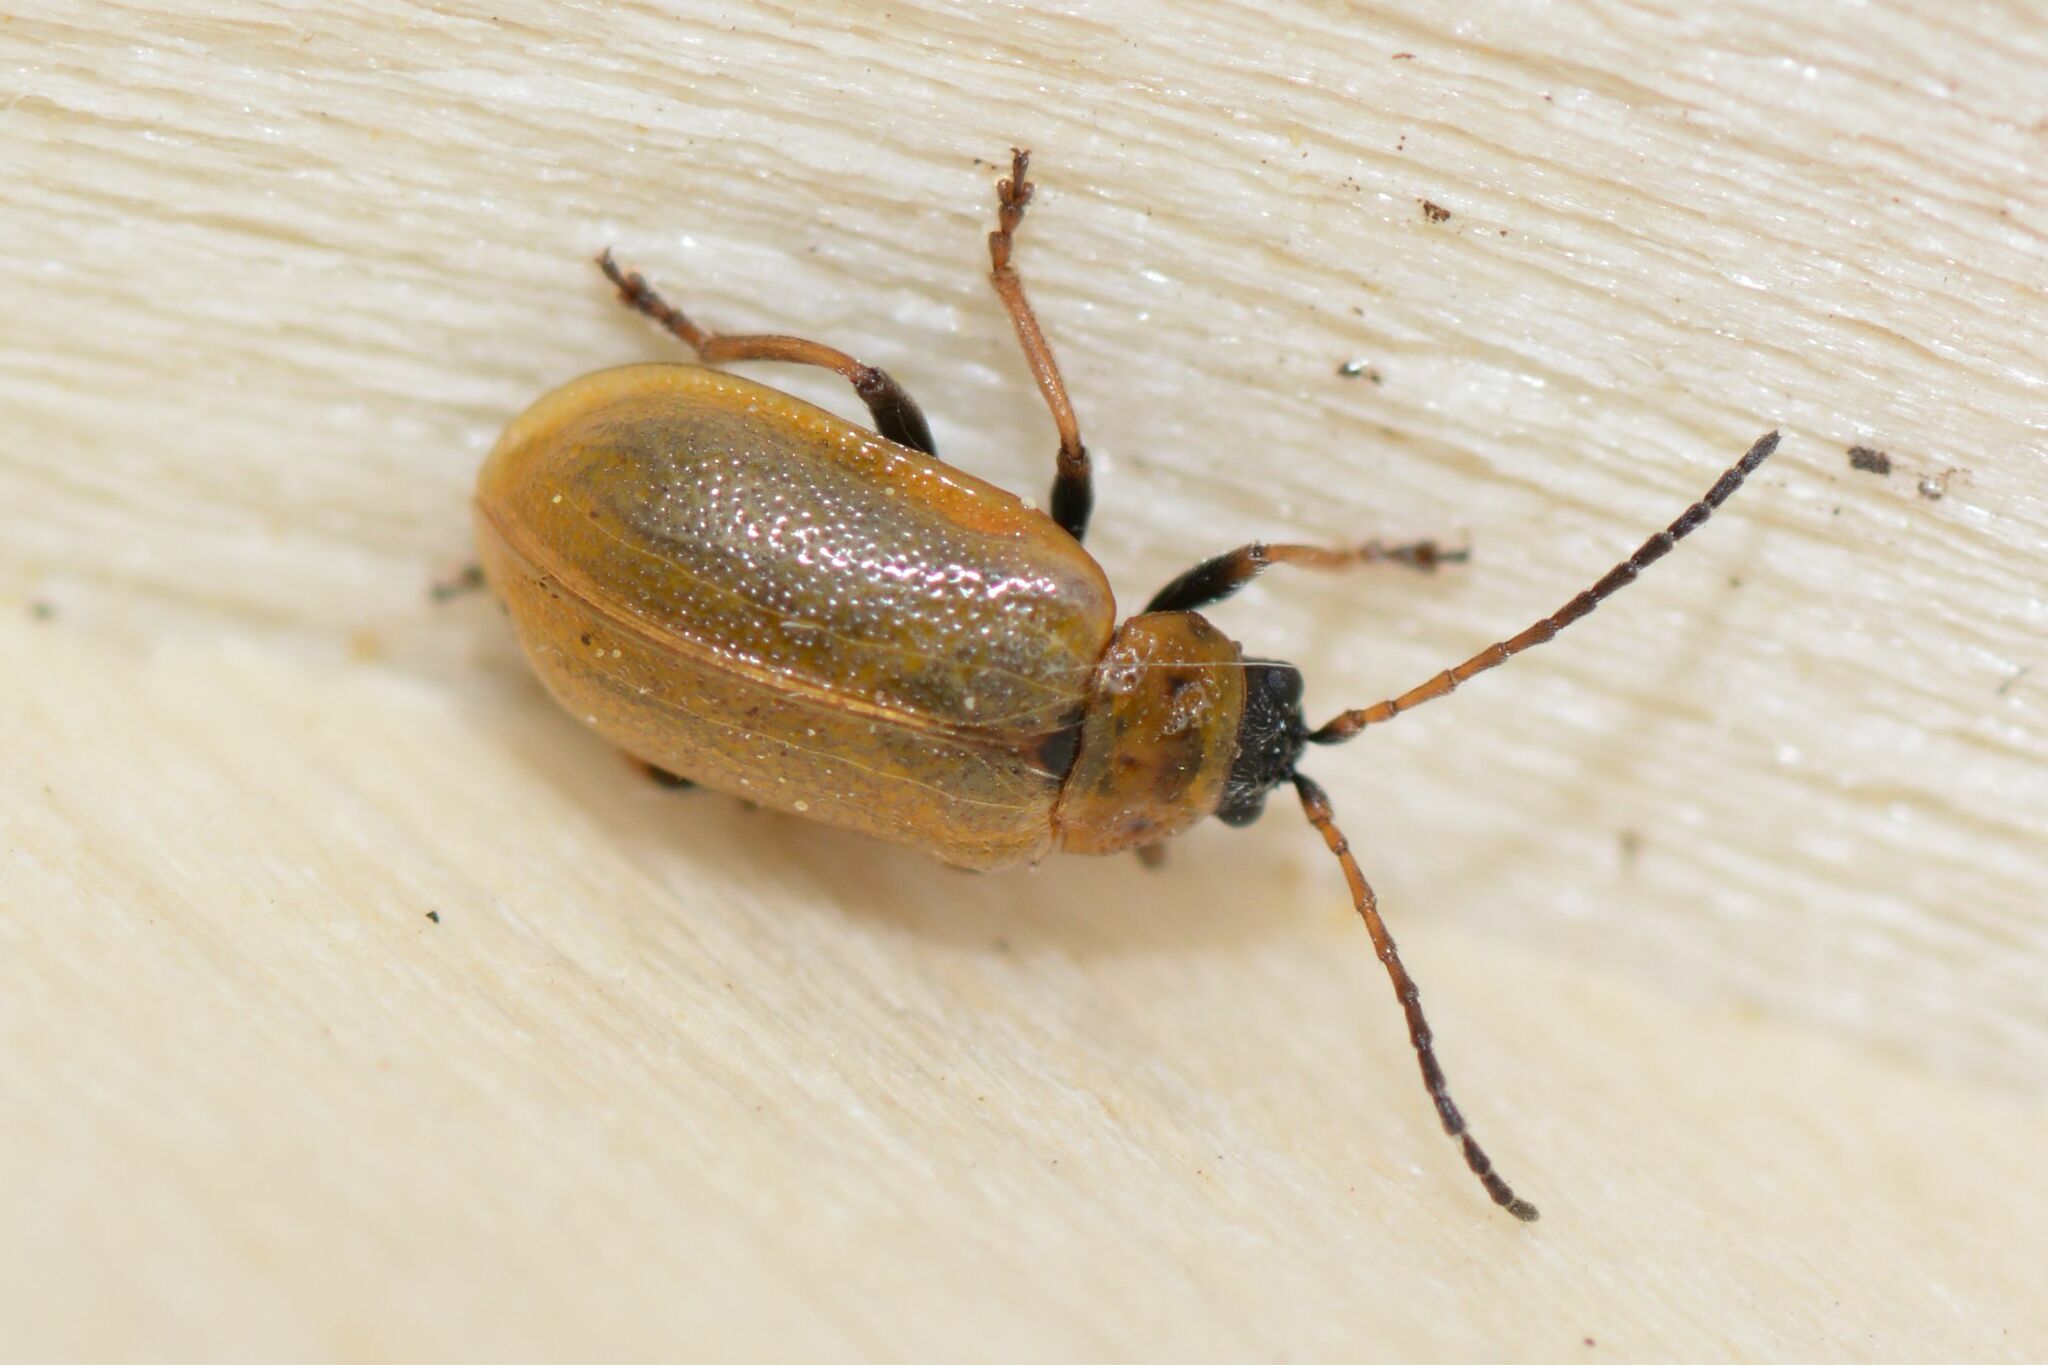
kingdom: Animalia
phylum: Arthropoda
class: Insecta
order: Coleoptera
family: Chrysomelidae
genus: Lochmaea
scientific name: Lochmaea caprea
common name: Willow leaf beetle
